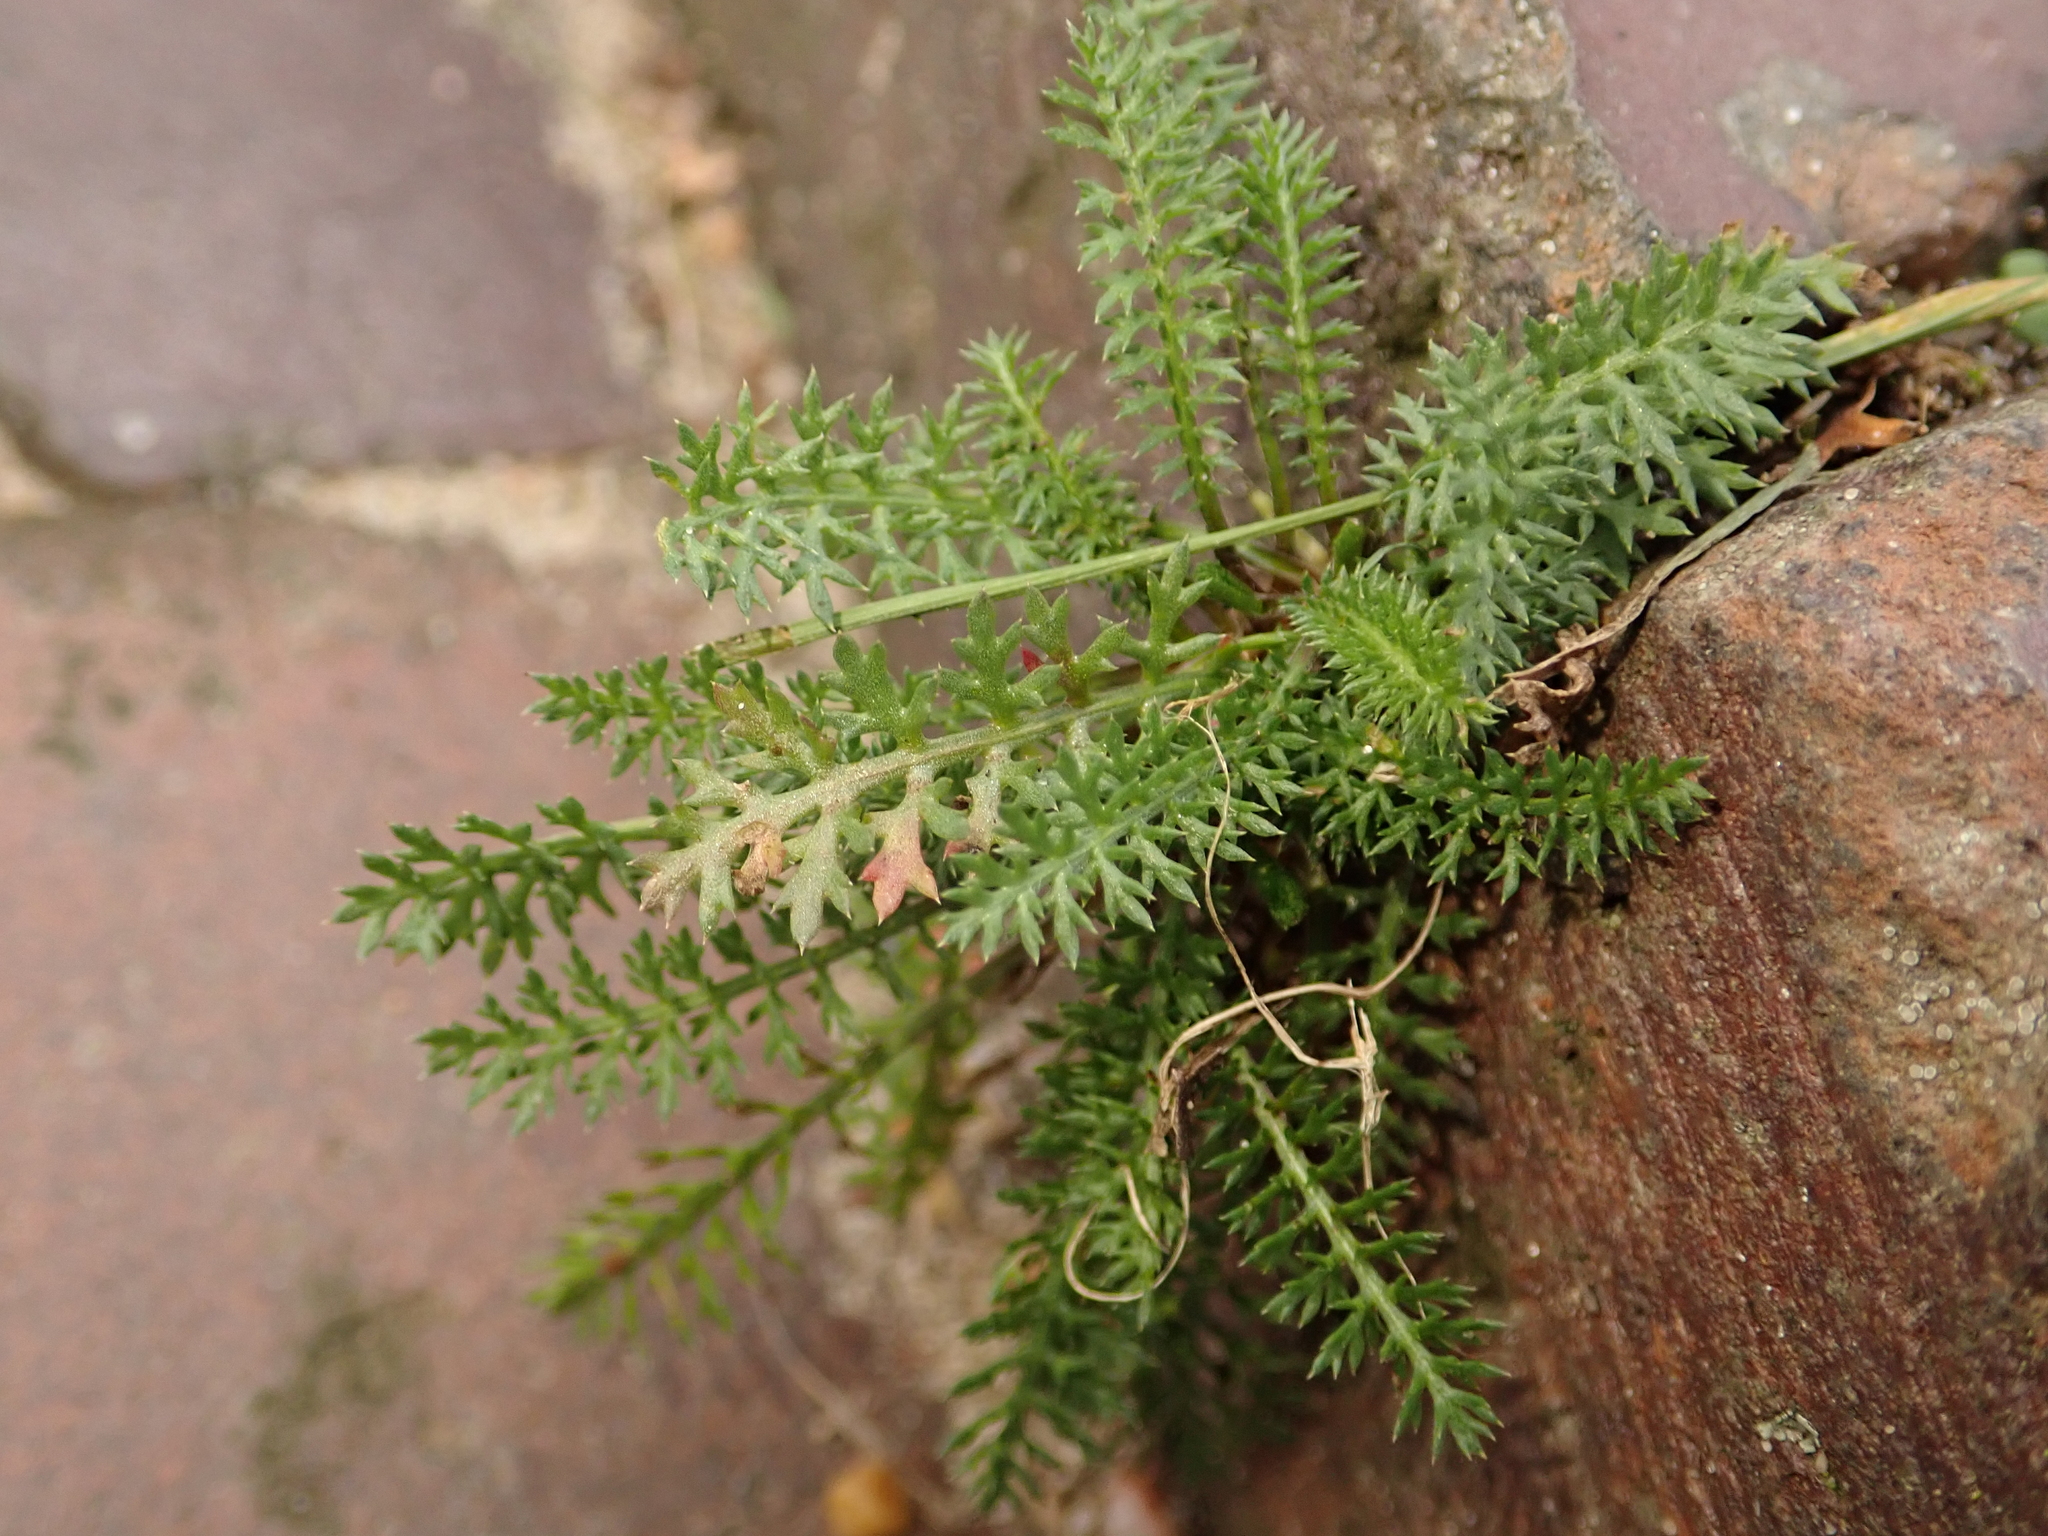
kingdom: Plantae
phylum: Tracheophyta
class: Magnoliopsida
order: Asterales
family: Asteraceae
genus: Achillea
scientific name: Achillea millefolium
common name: Yarrow
